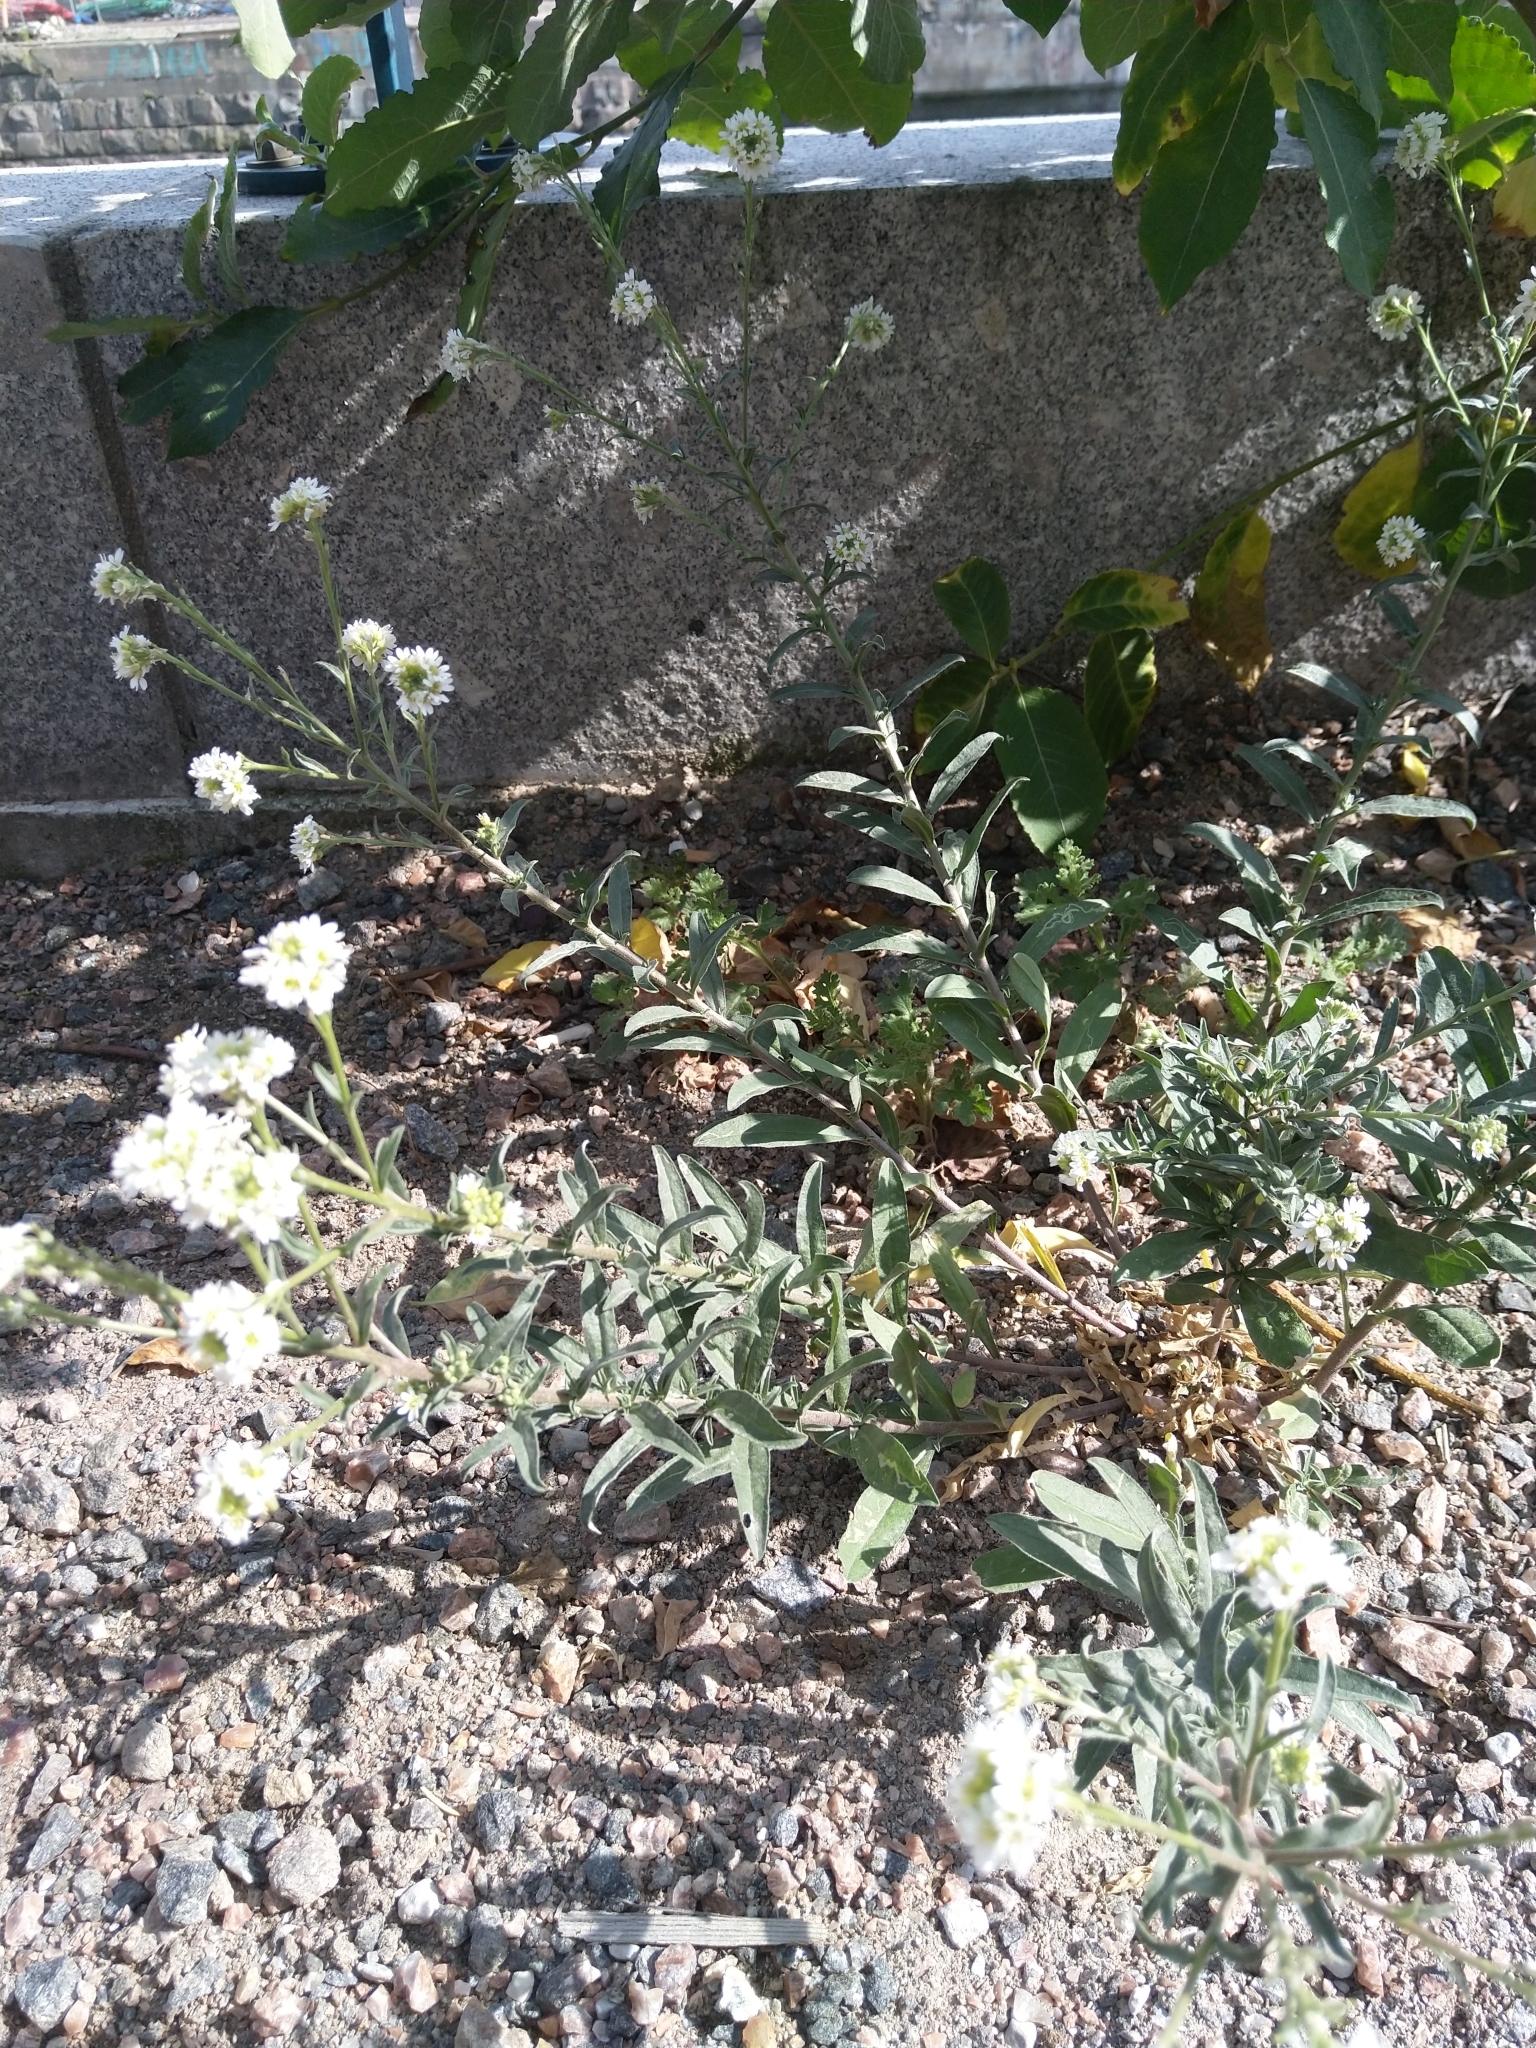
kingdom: Plantae
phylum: Tracheophyta
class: Magnoliopsida
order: Brassicales
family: Brassicaceae
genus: Berteroa
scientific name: Berteroa incana
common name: Hoary alison
